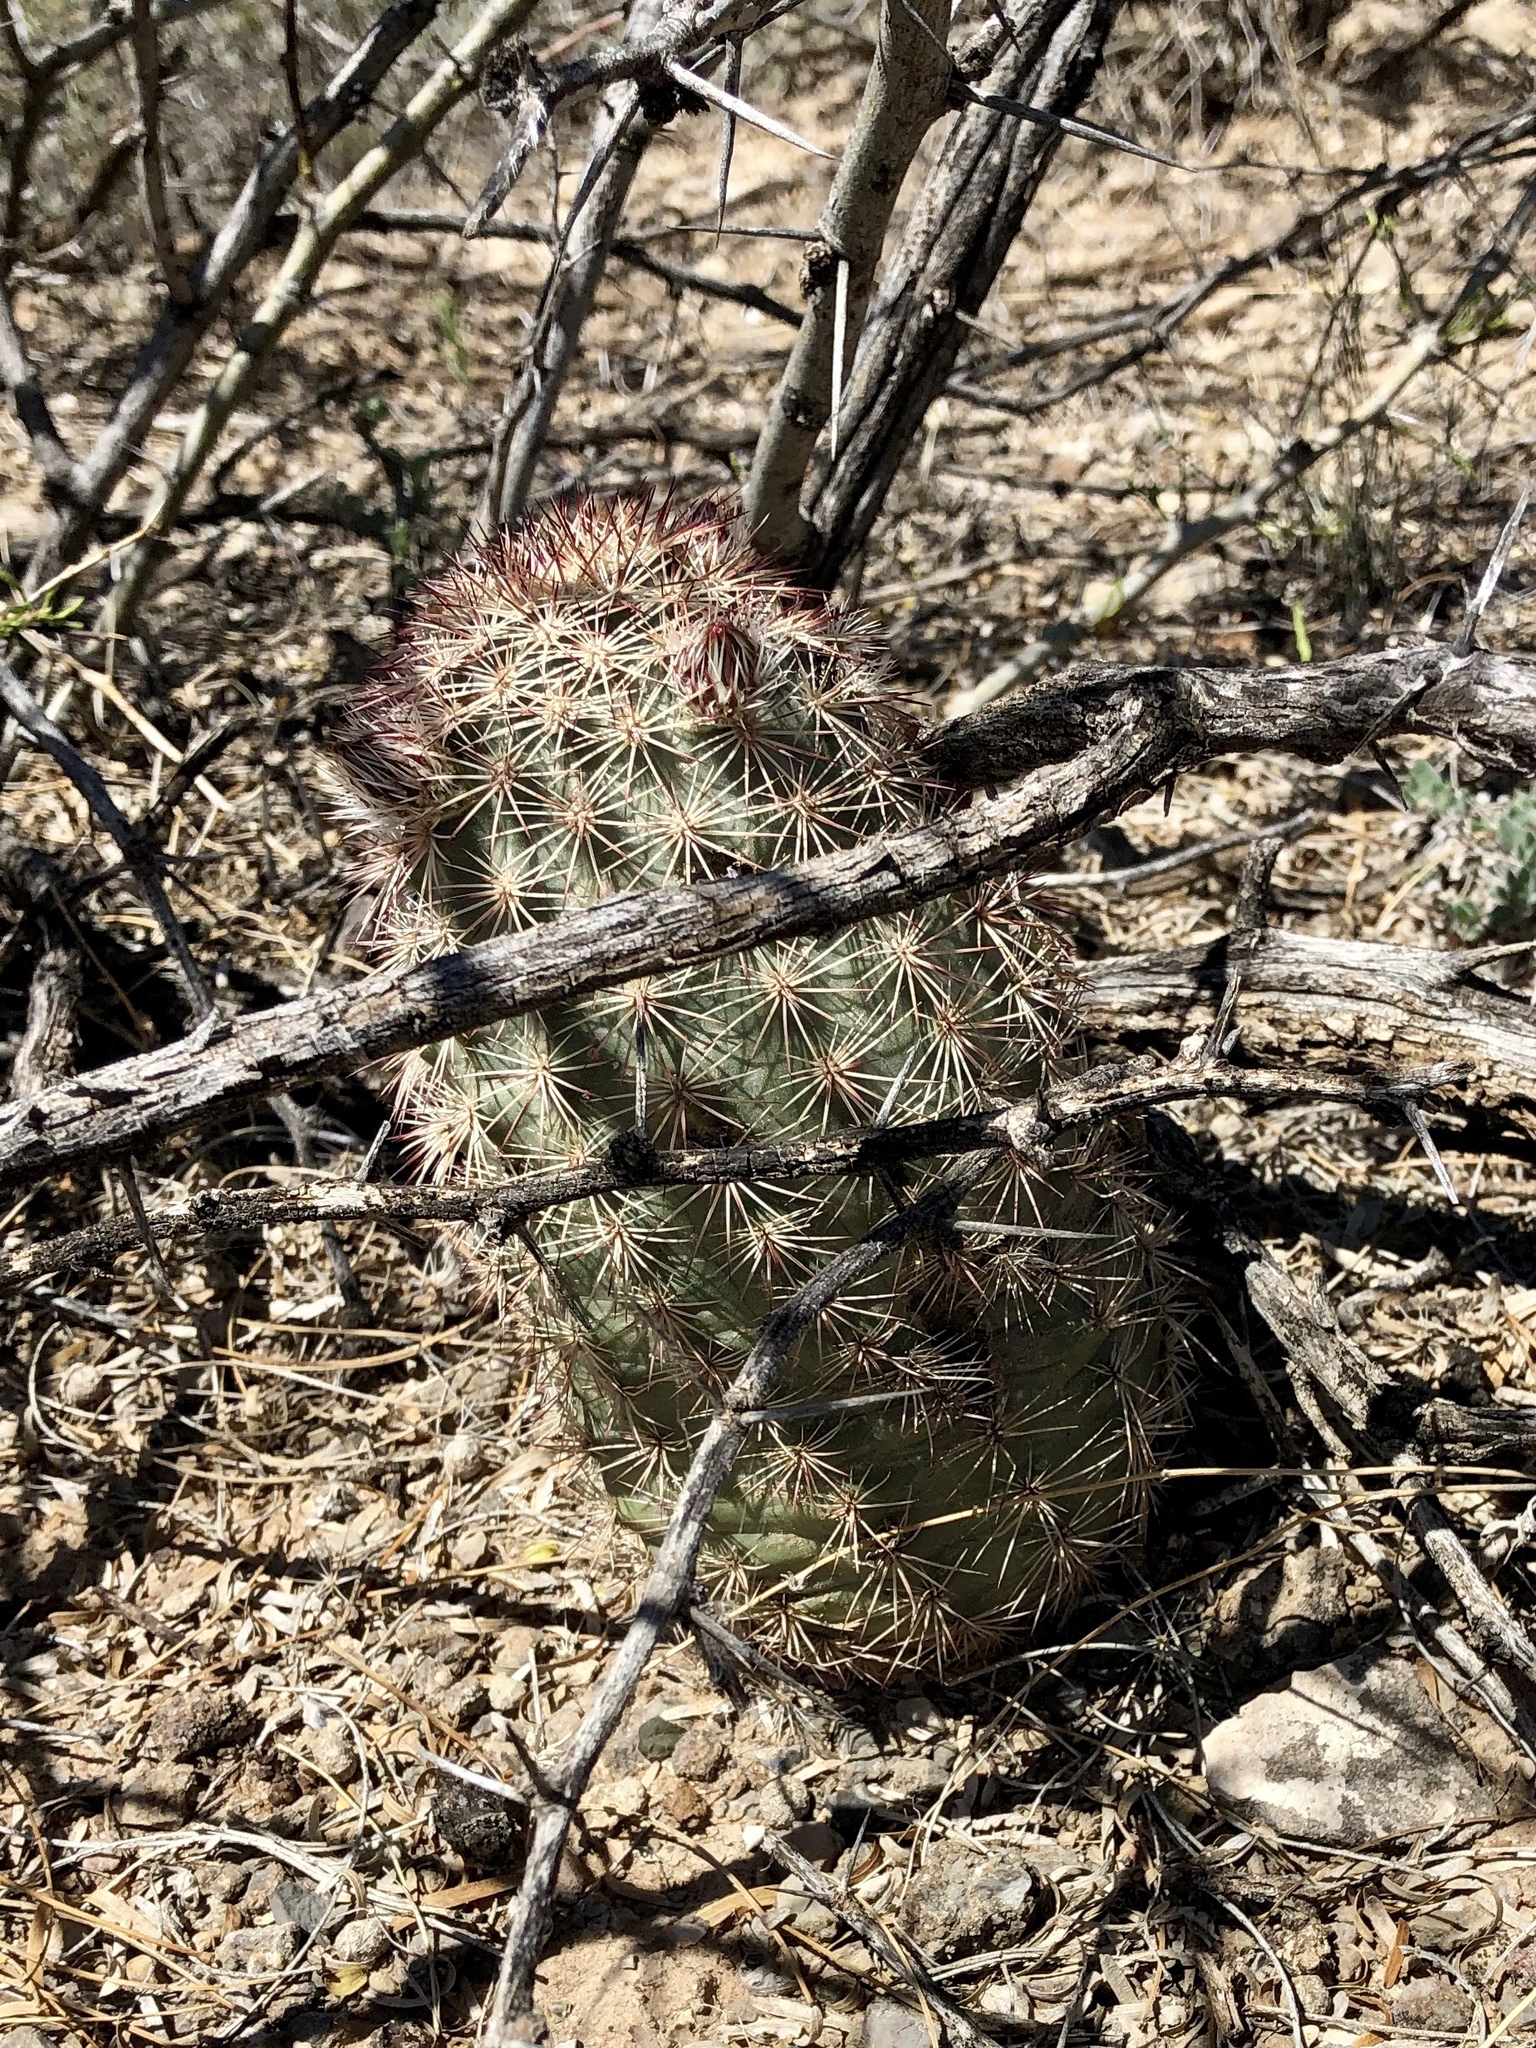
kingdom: Plantae
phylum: Tracheophyta
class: Magnoliopsida
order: Caryophyllales
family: Cactaceae
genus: Echinocereus
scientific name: Echinocereus dasyacanthus
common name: Spiny hedgehog cactus
